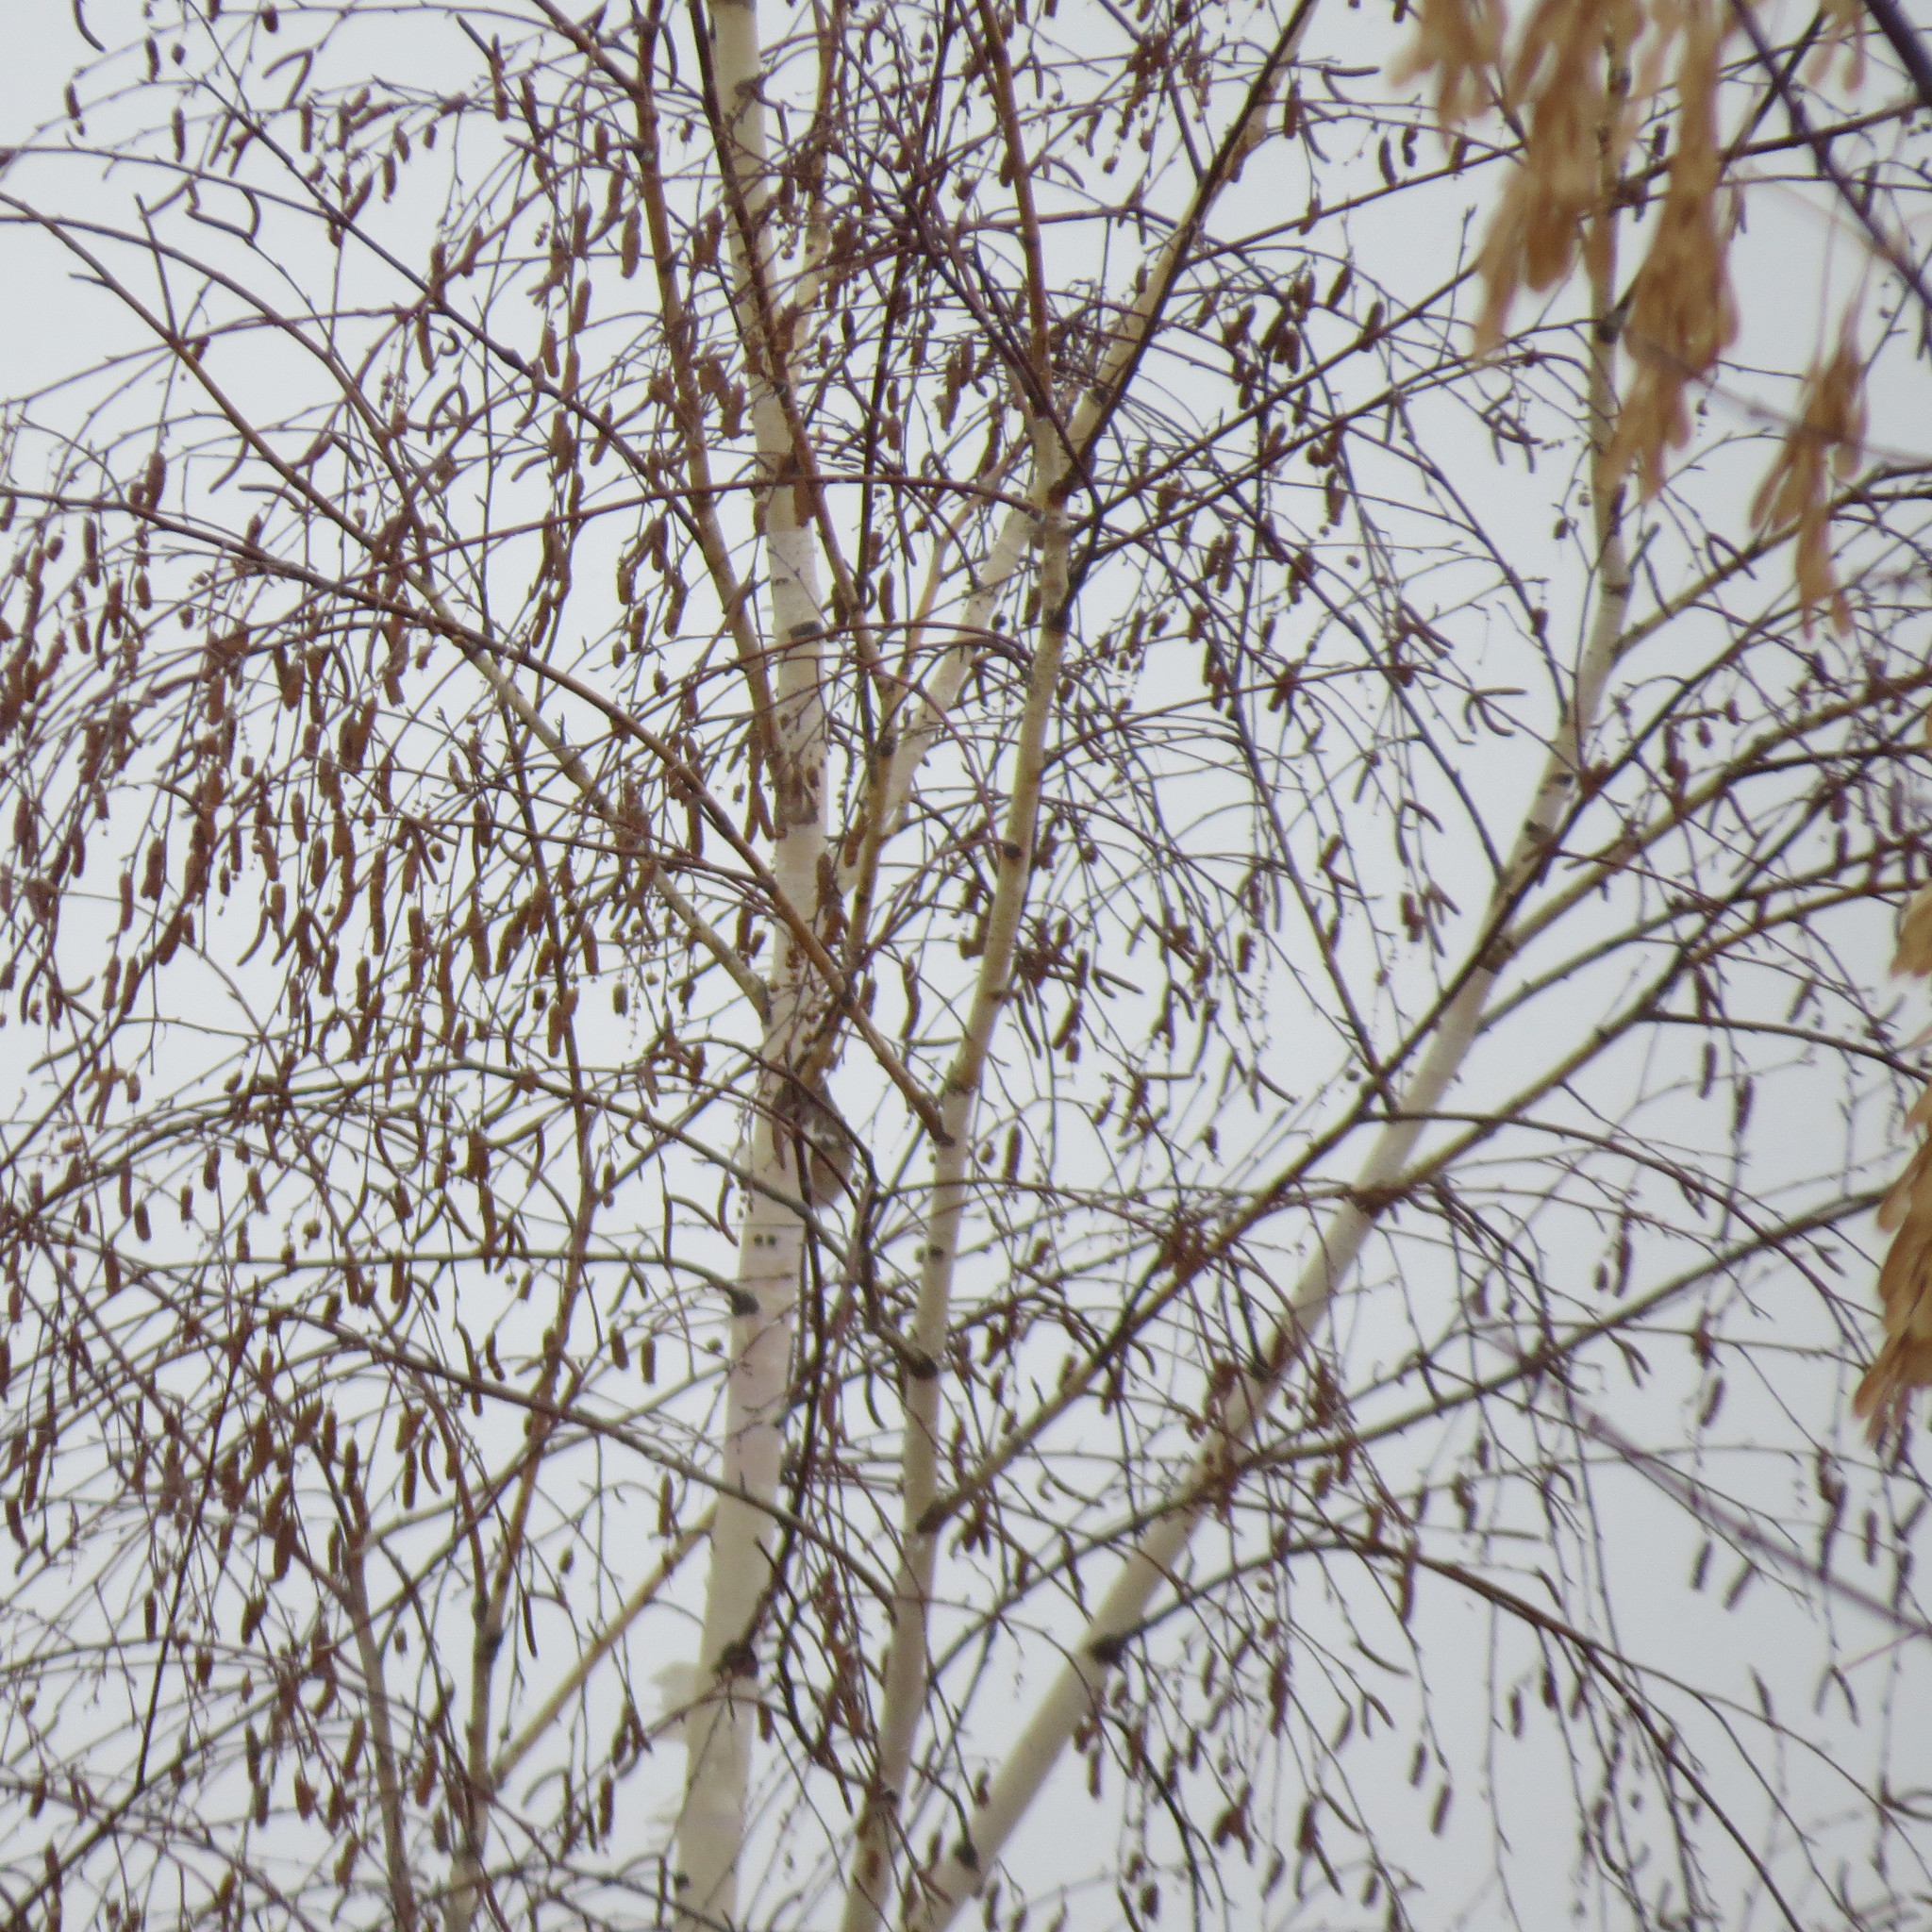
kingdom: Animalia
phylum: Chordata
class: Aves
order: Passeriformes
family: Fringillidae
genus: Carpodacus
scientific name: Carpodacus sibiricus
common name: Long-tailed rosefinch
